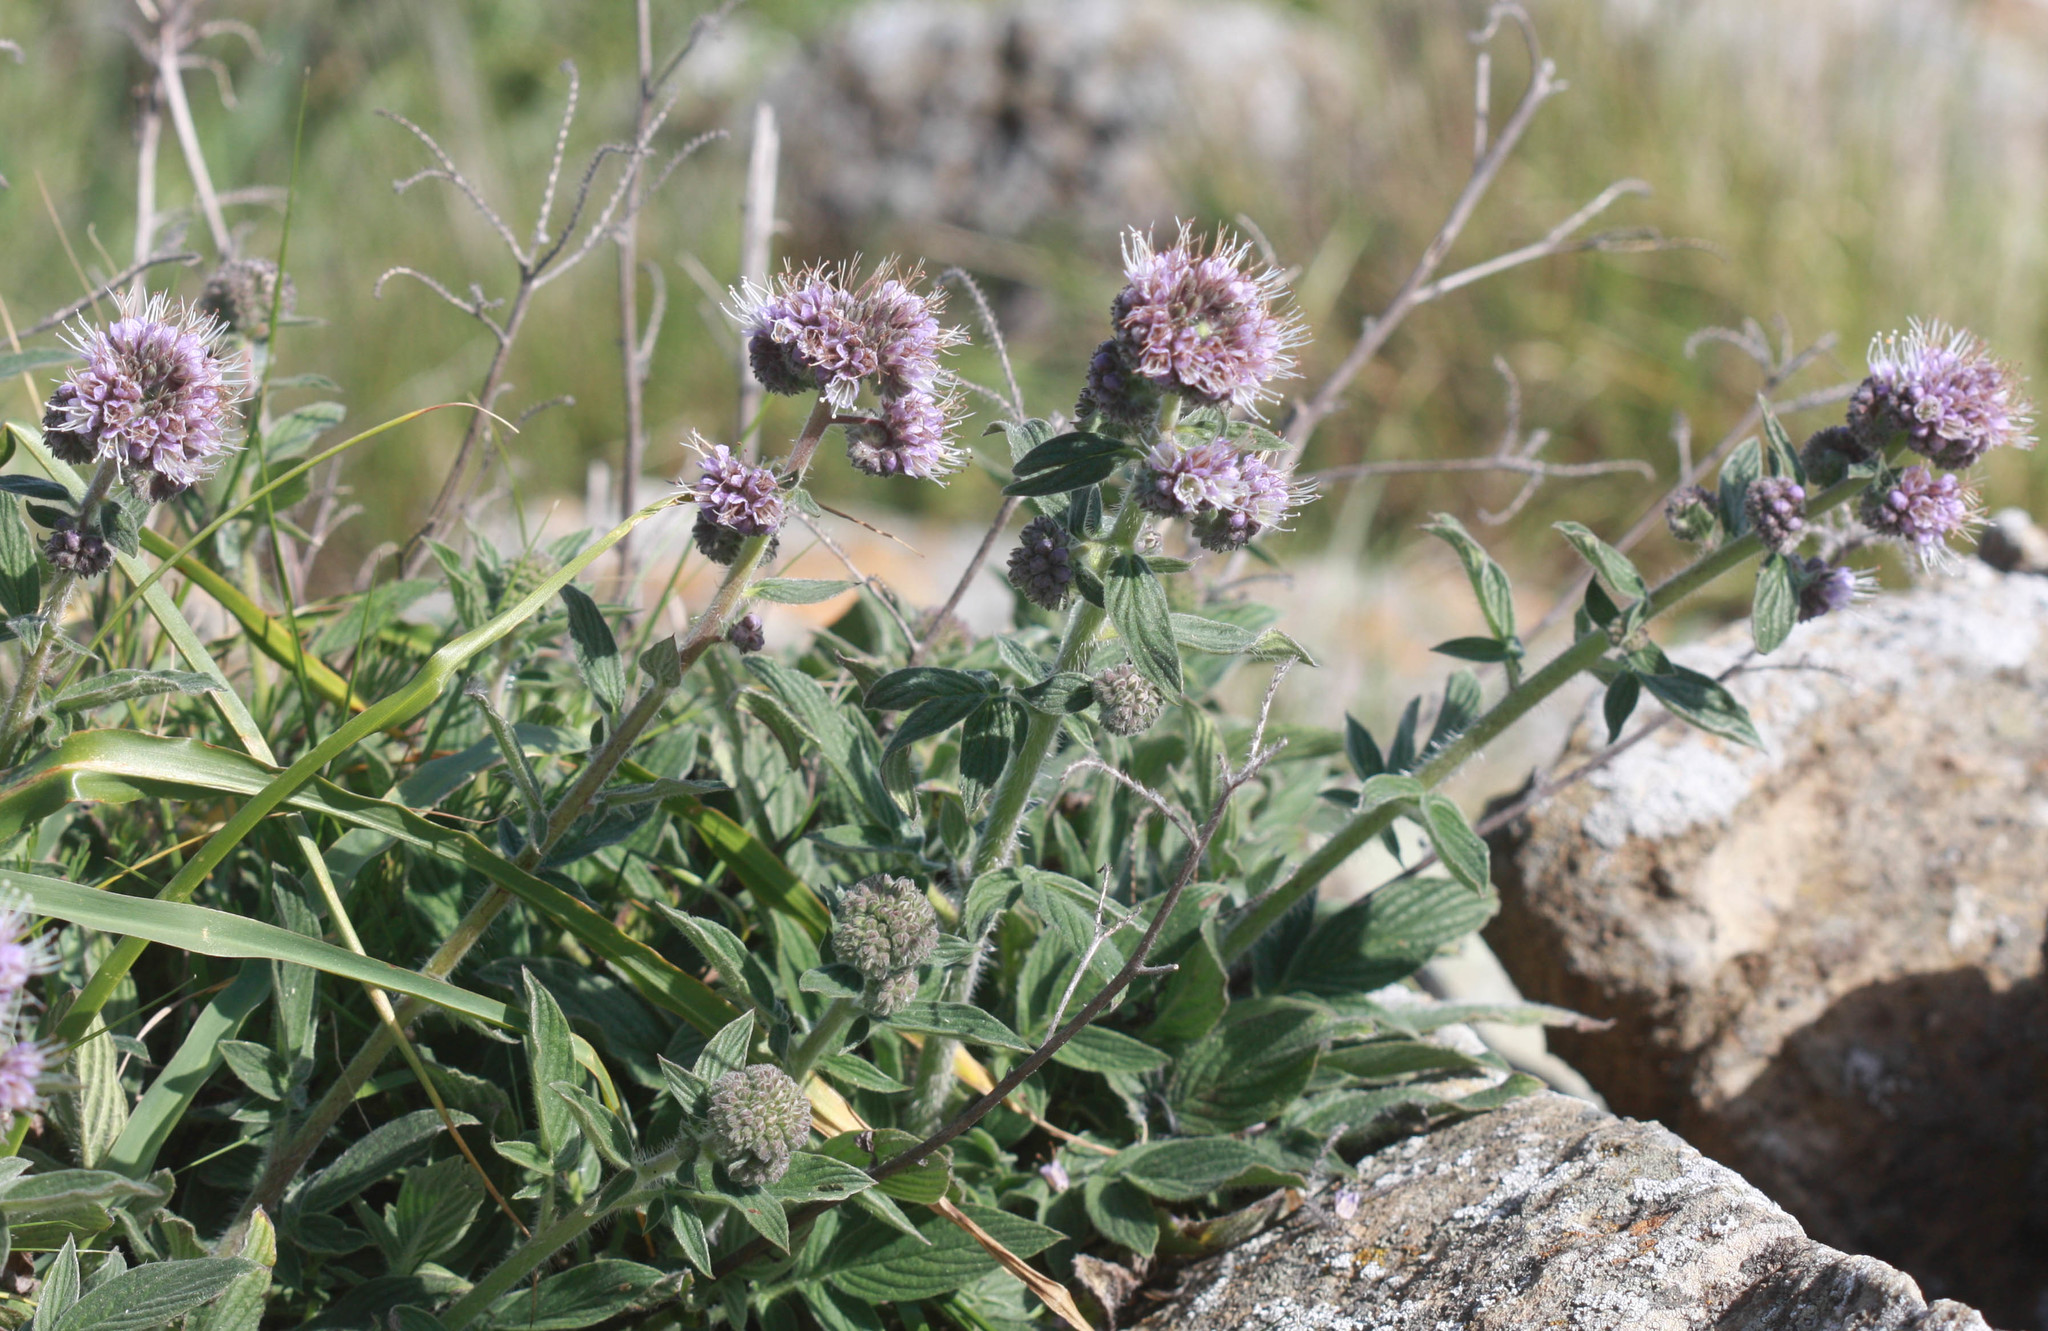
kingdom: Plantae
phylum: Tracheophyta
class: Magnoliopsida
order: Boraginales
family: Hydrophyllaceae
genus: Phacelia
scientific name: Phacelia californica
